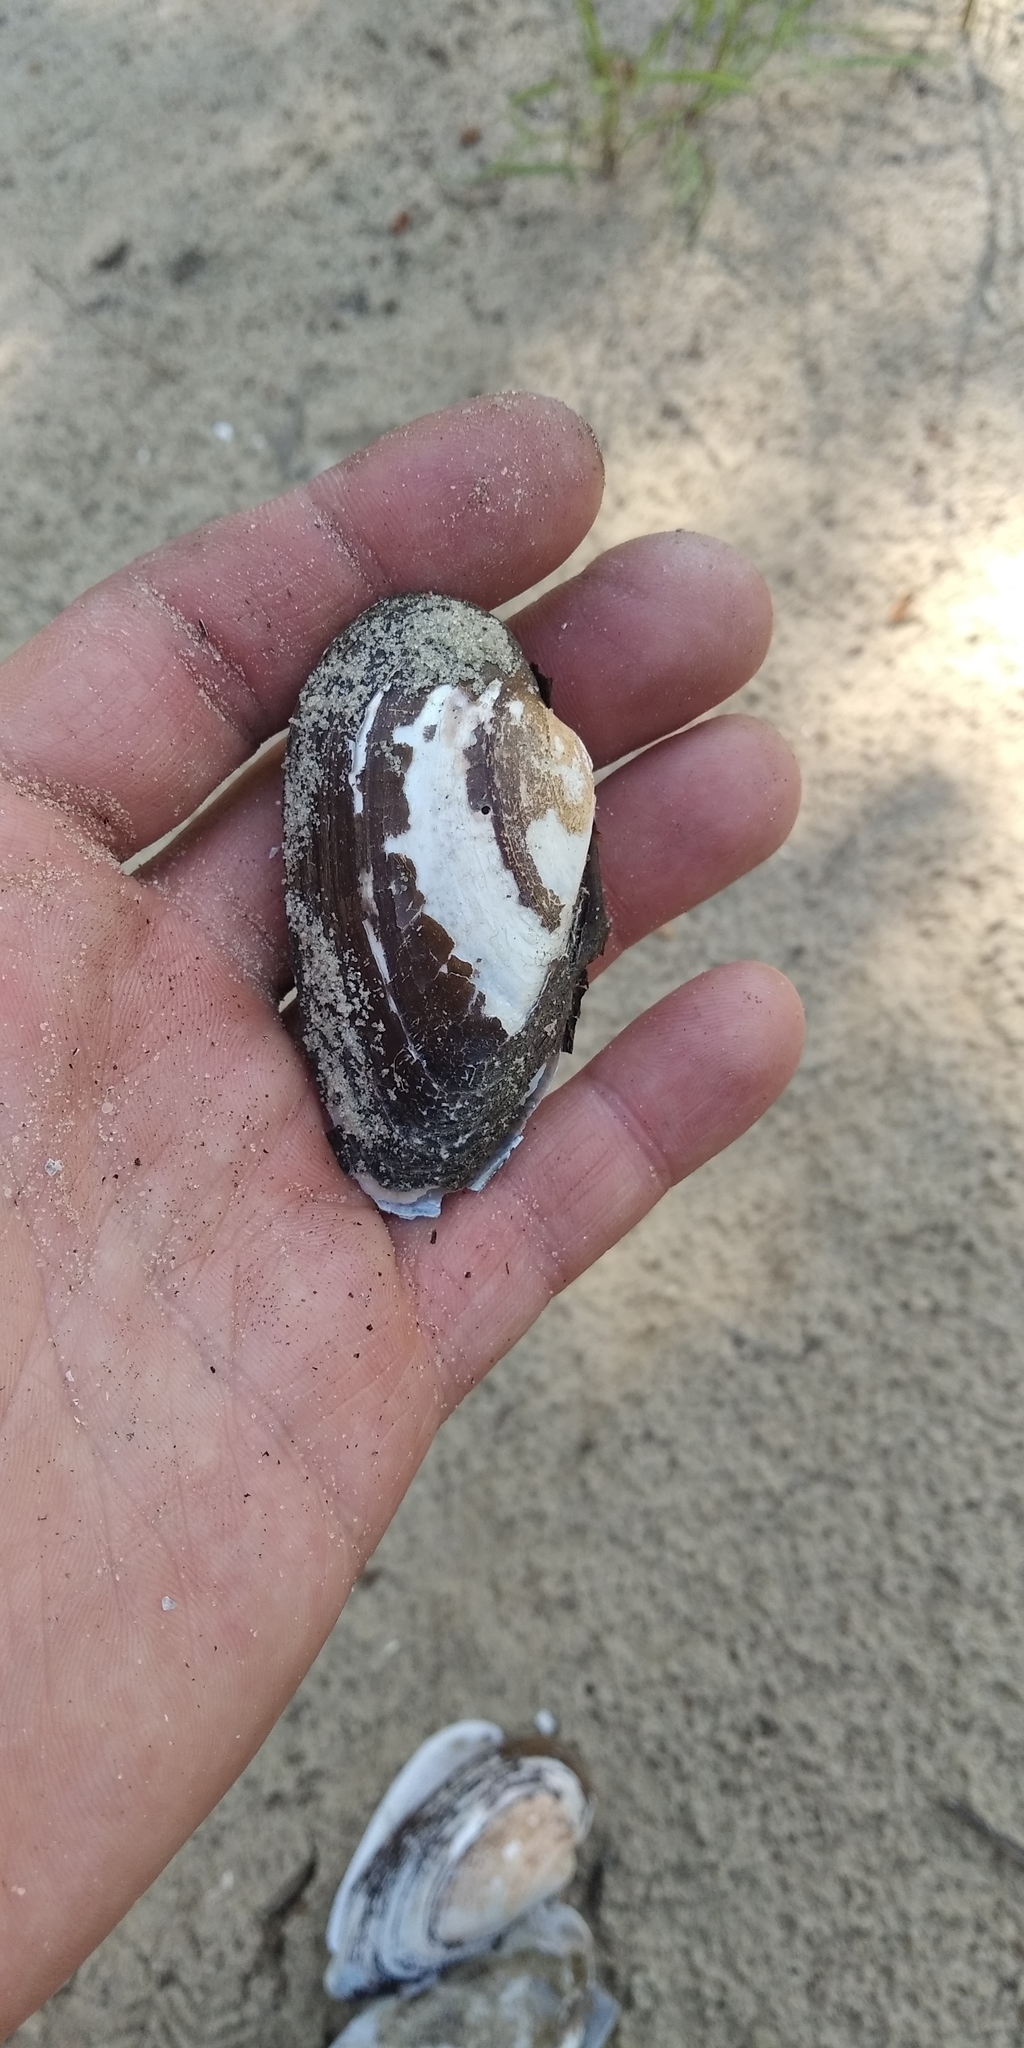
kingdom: Animalia
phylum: Mollusca
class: Bivalvia
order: Unionida
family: Unionidae
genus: Unio
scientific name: Unio tumidus
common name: Swollen river mussel
